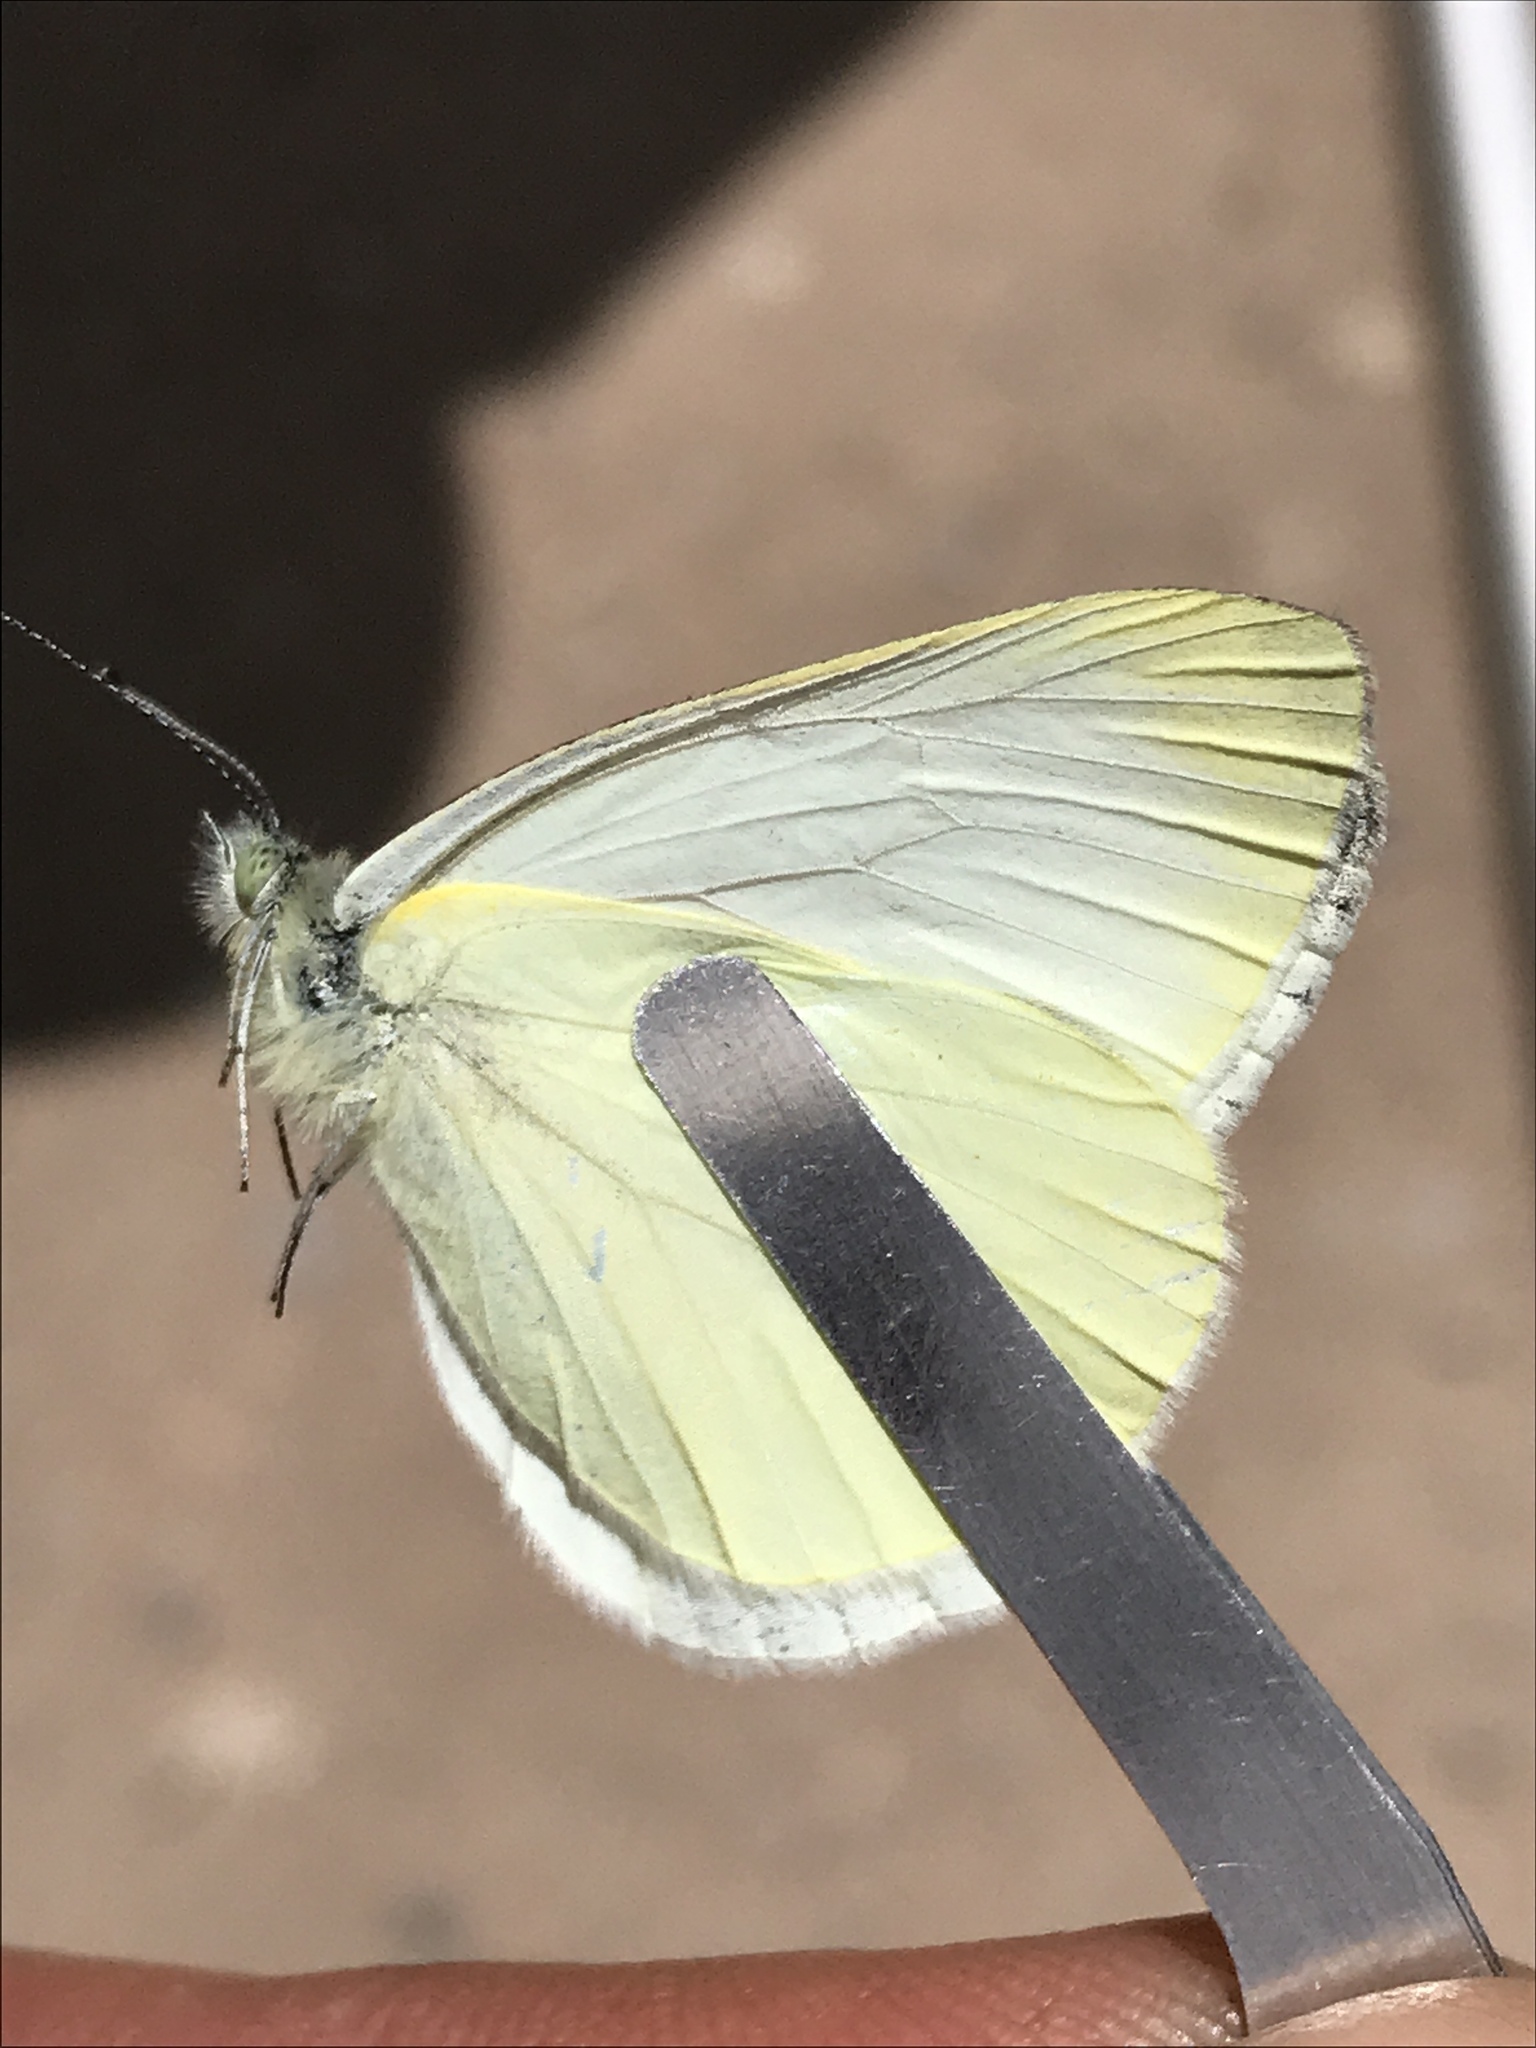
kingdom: Animalia
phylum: Arthropoda
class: Insecta
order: Lepidoptera
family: Pieridae
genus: Pieris
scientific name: Pieris marginalis
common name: Margined white
